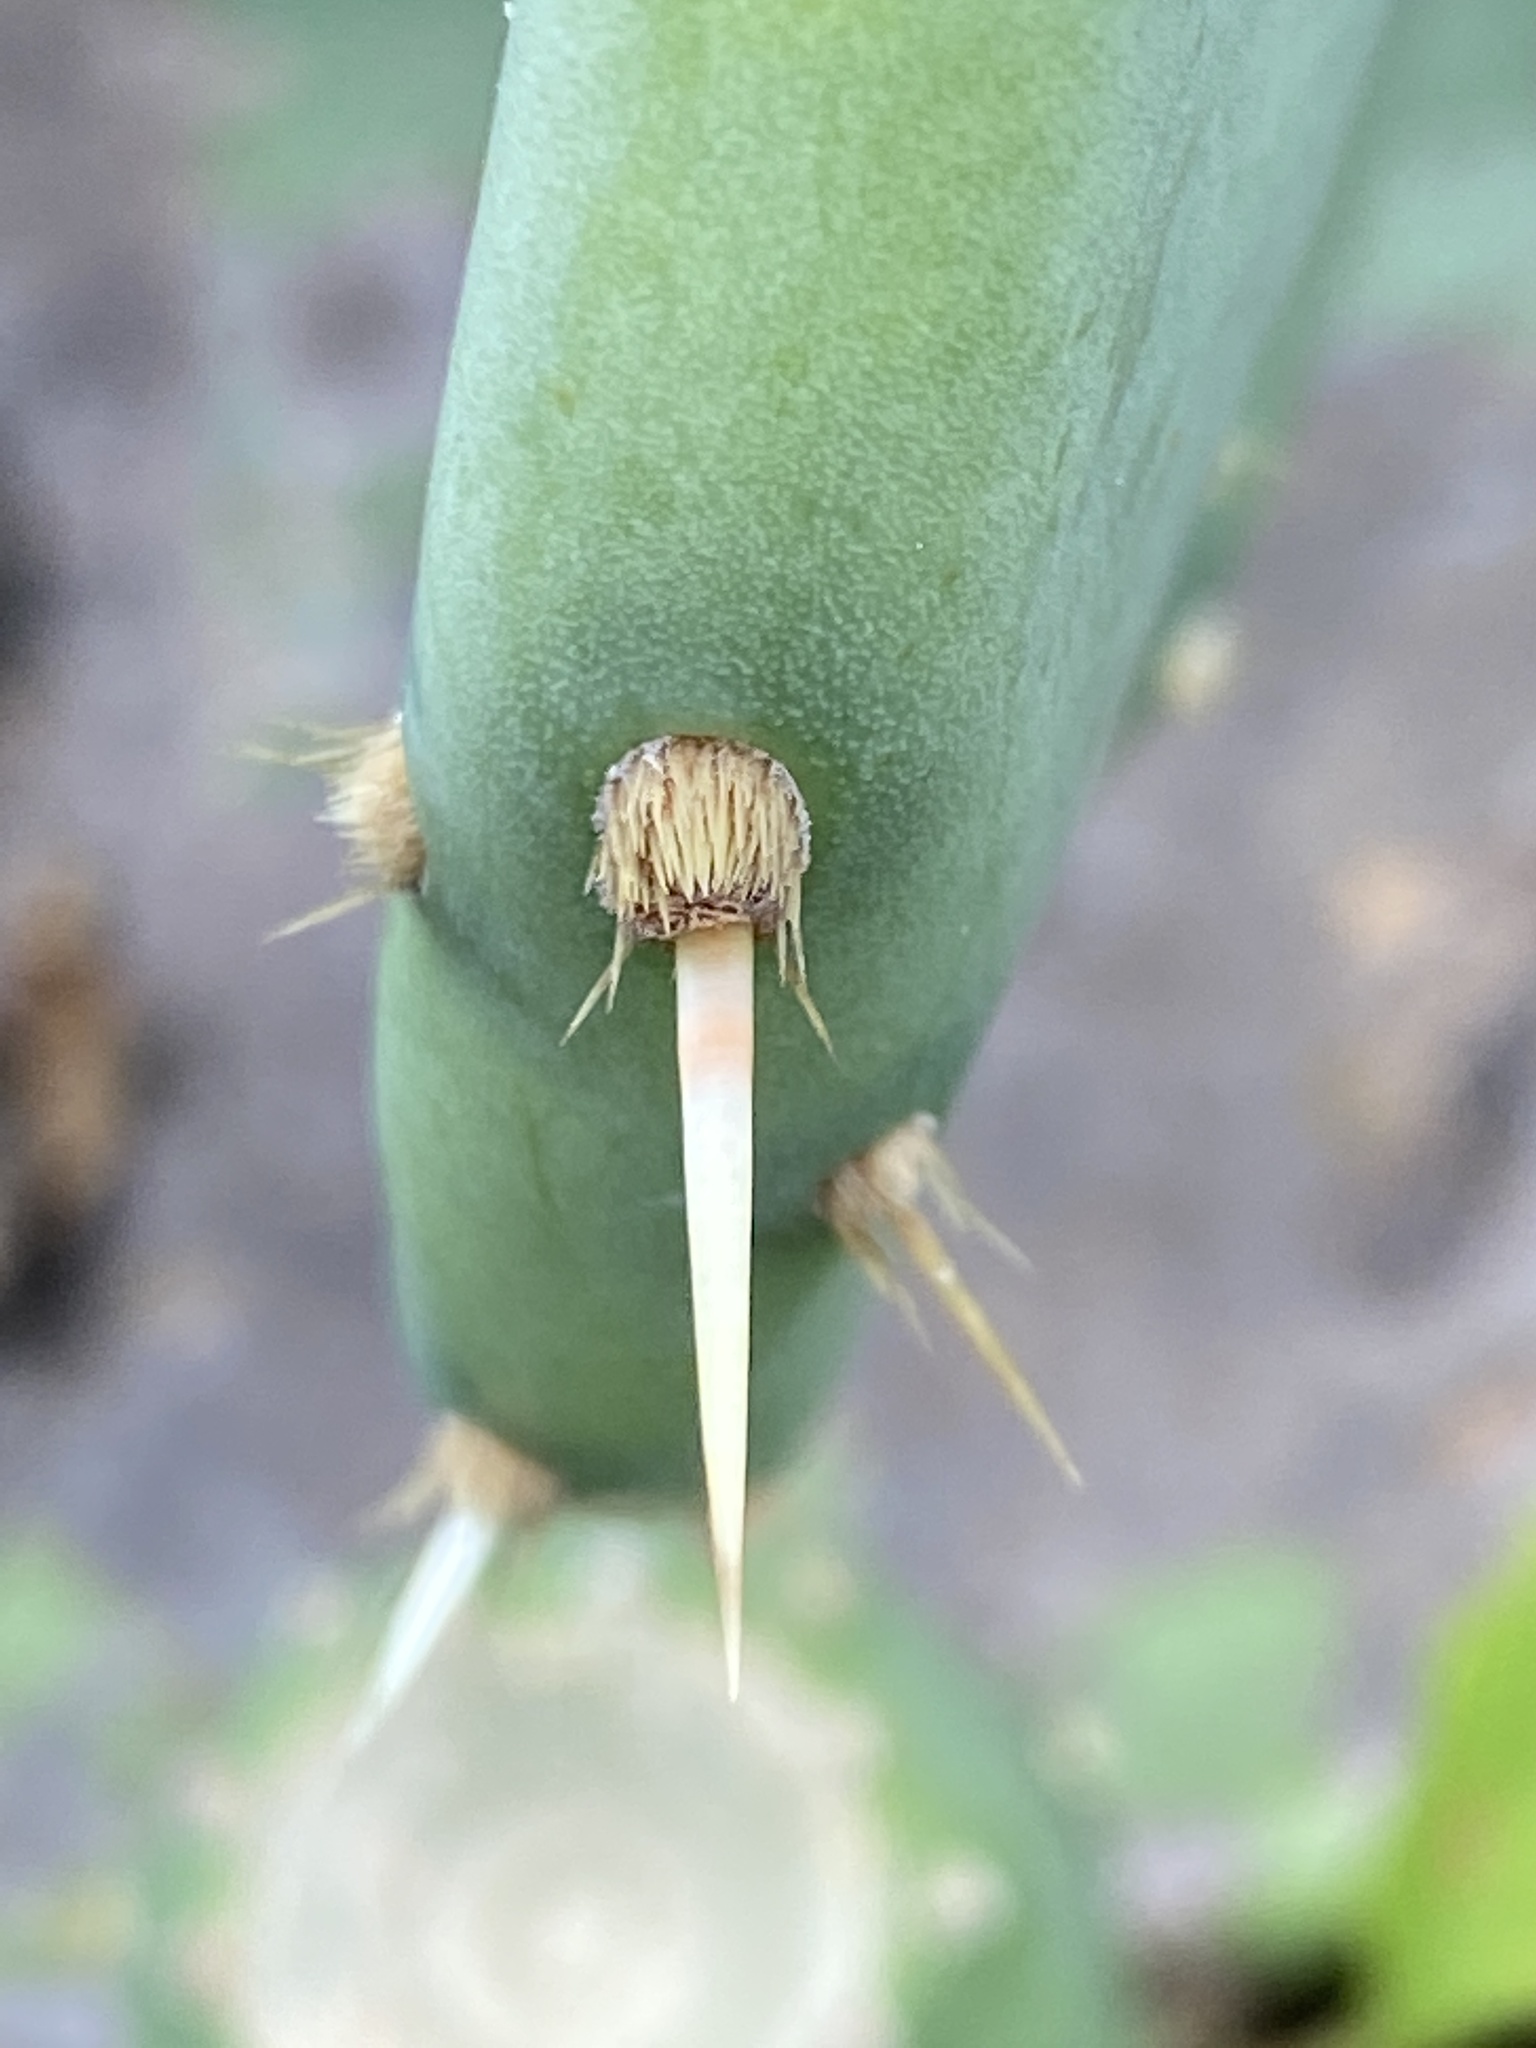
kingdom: Plantae
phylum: Tracheophyta
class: Magnoliopsida
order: Caryophyllales
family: Cactaceae
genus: Opuntia
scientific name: Opuntia tunoidea
